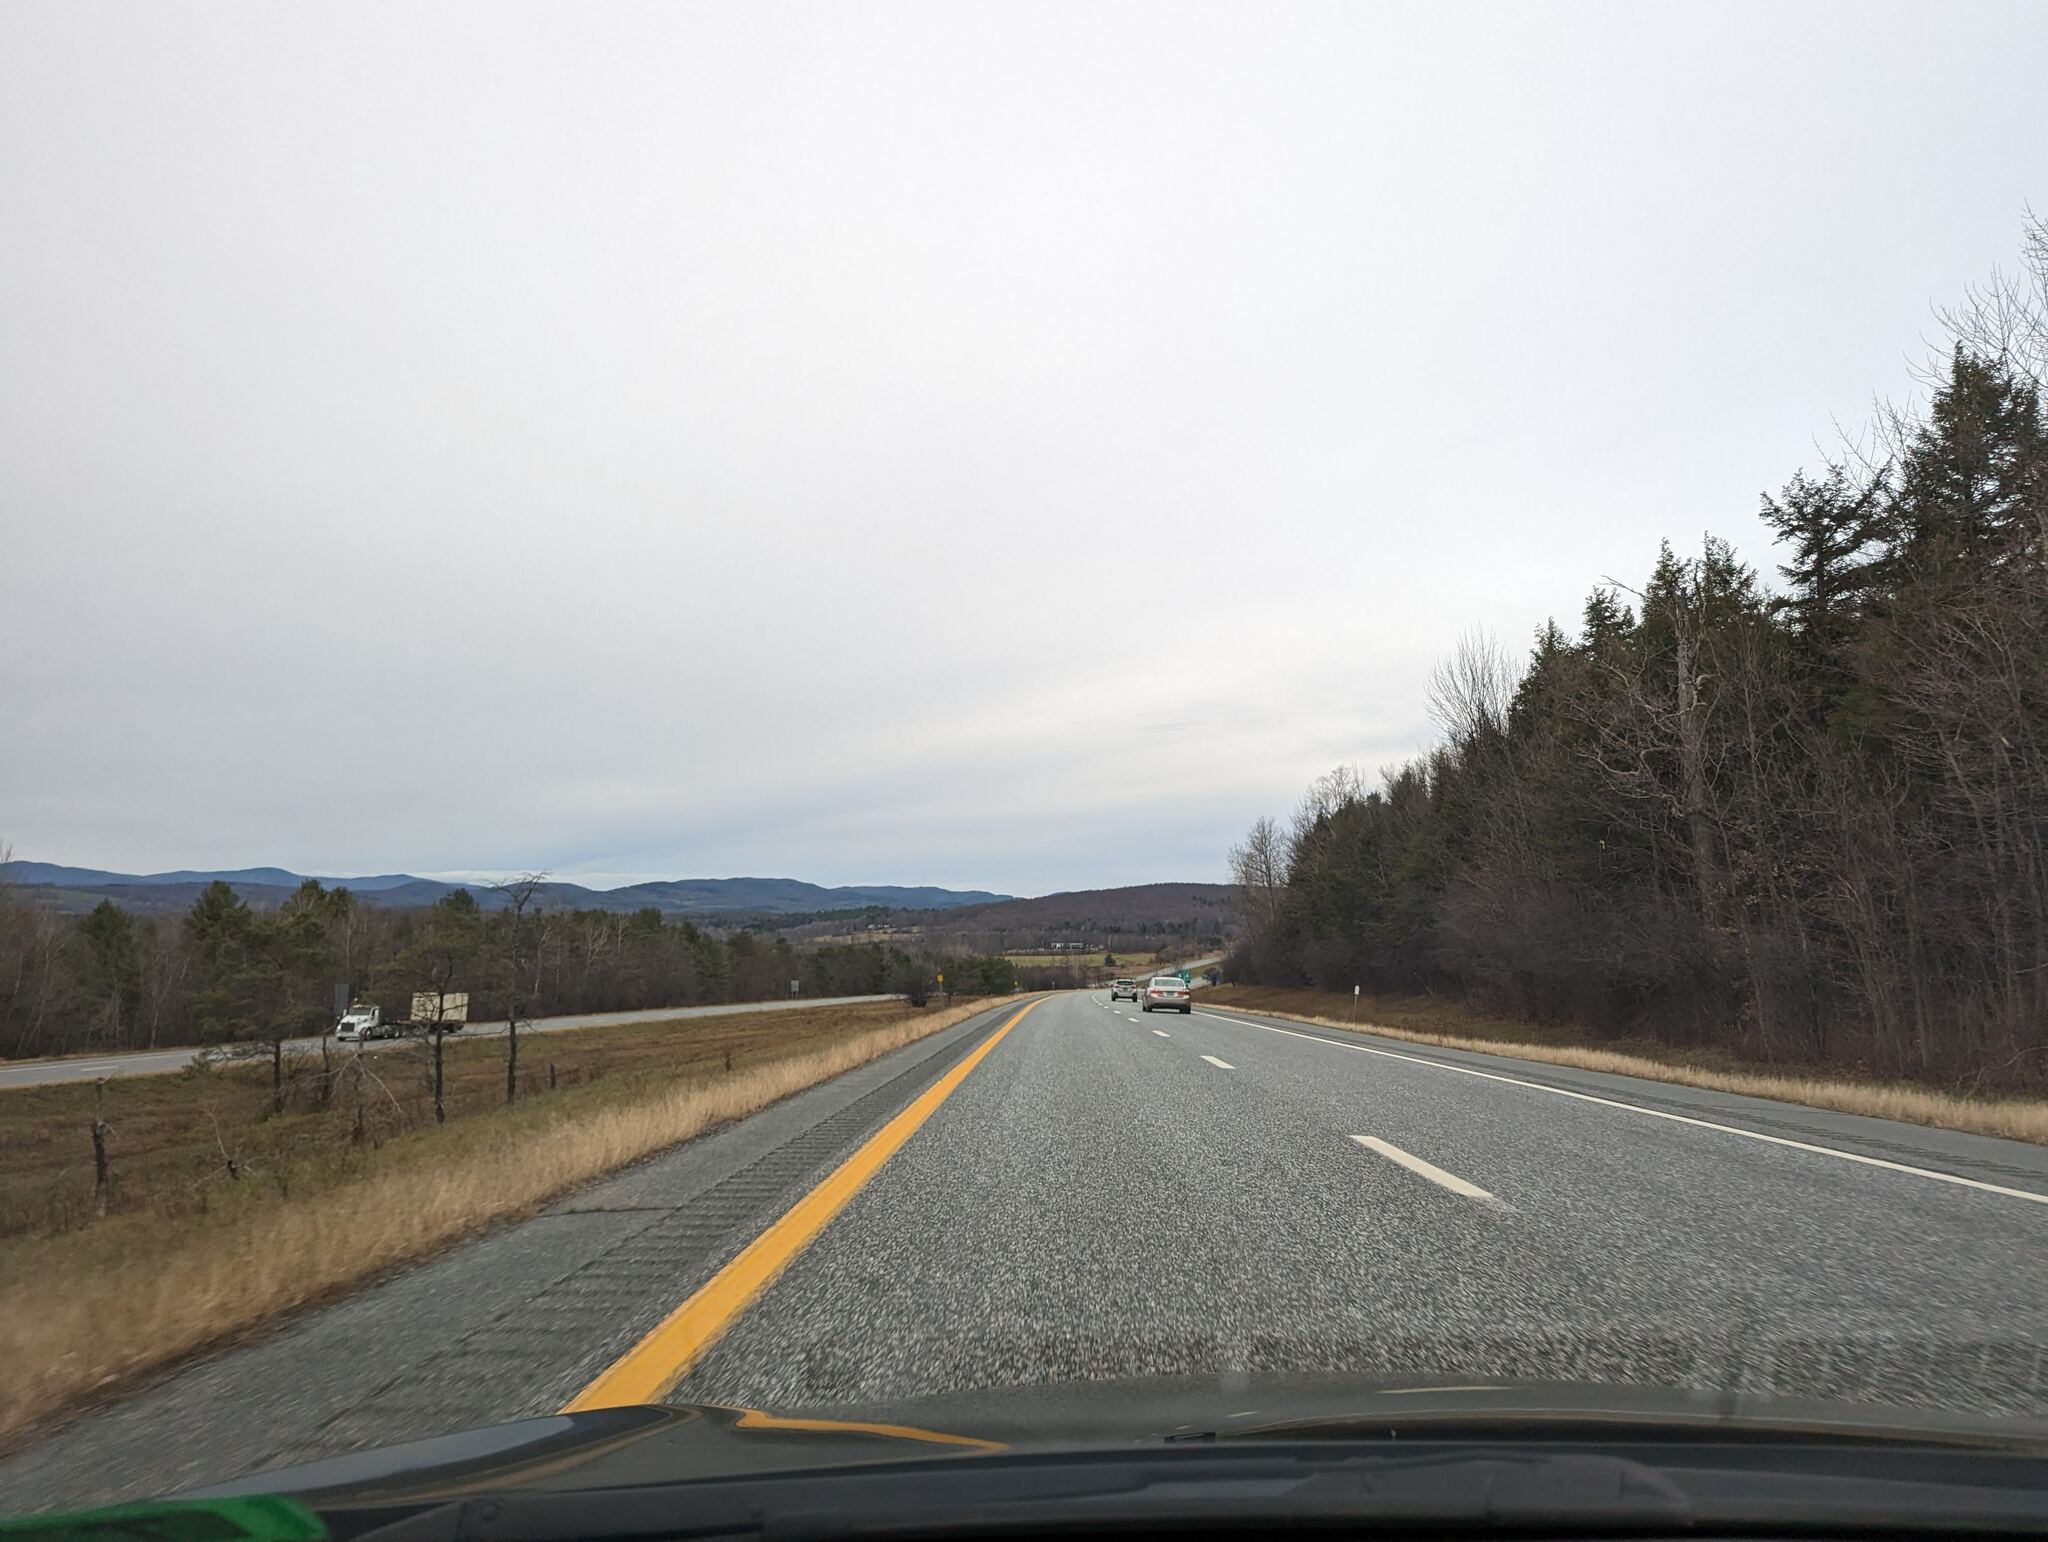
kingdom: Plantae
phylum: Tracheophyta
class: Pinopsida
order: Pinales
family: Pinaceae
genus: Pinus
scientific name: Pinus strobus
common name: Weymouth pine
